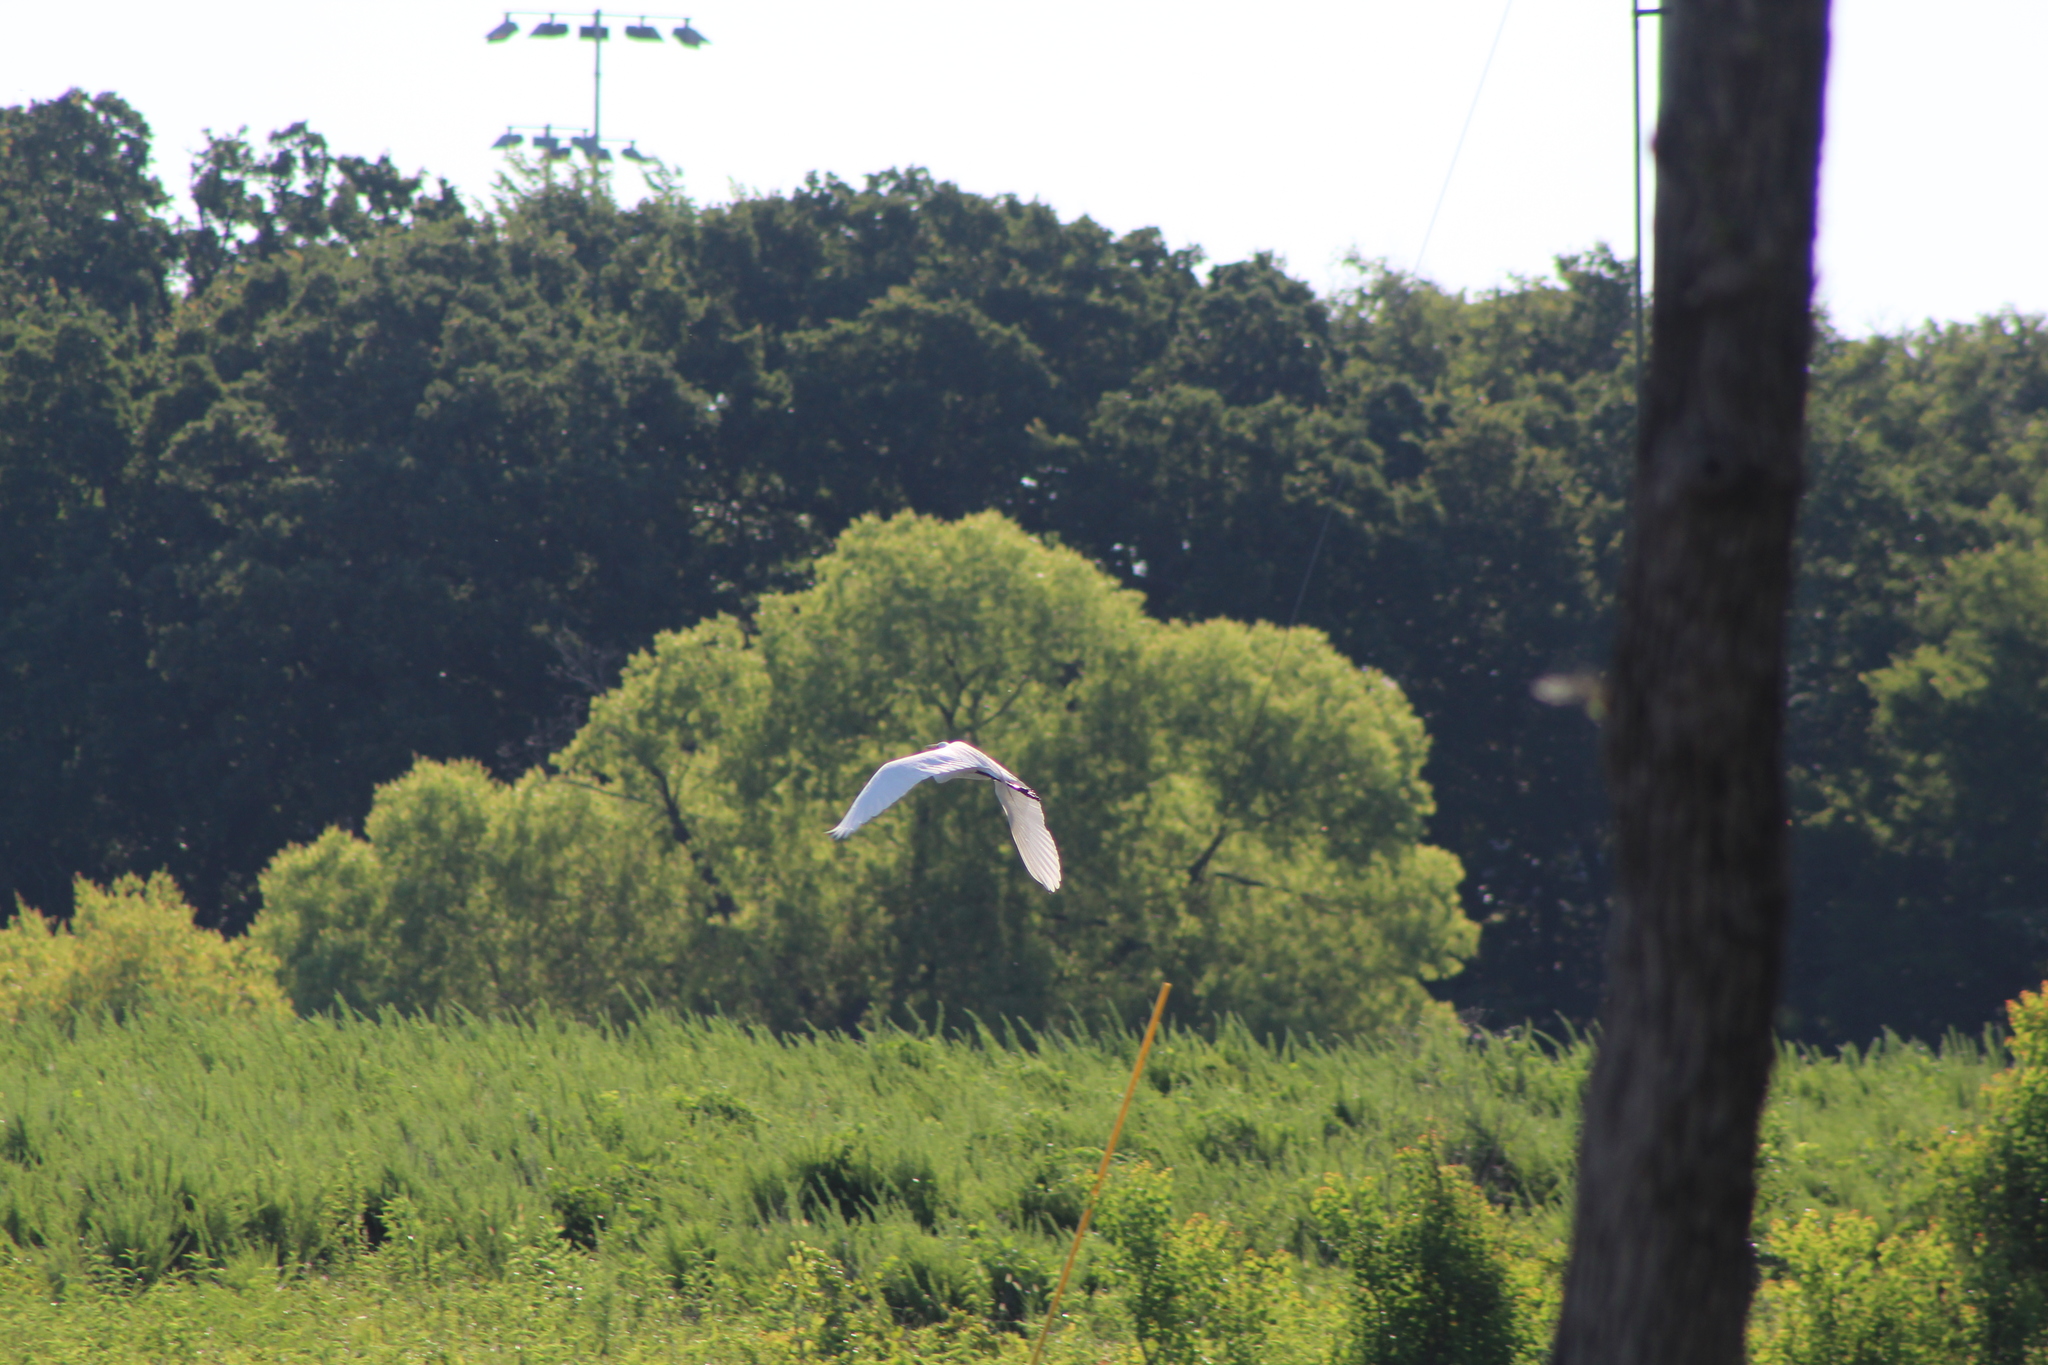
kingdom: Animalia
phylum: Chordata
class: Aves
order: Pelecaniformes
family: Ardeidae
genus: Ardea
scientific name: Ardea alba
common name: Great egret
